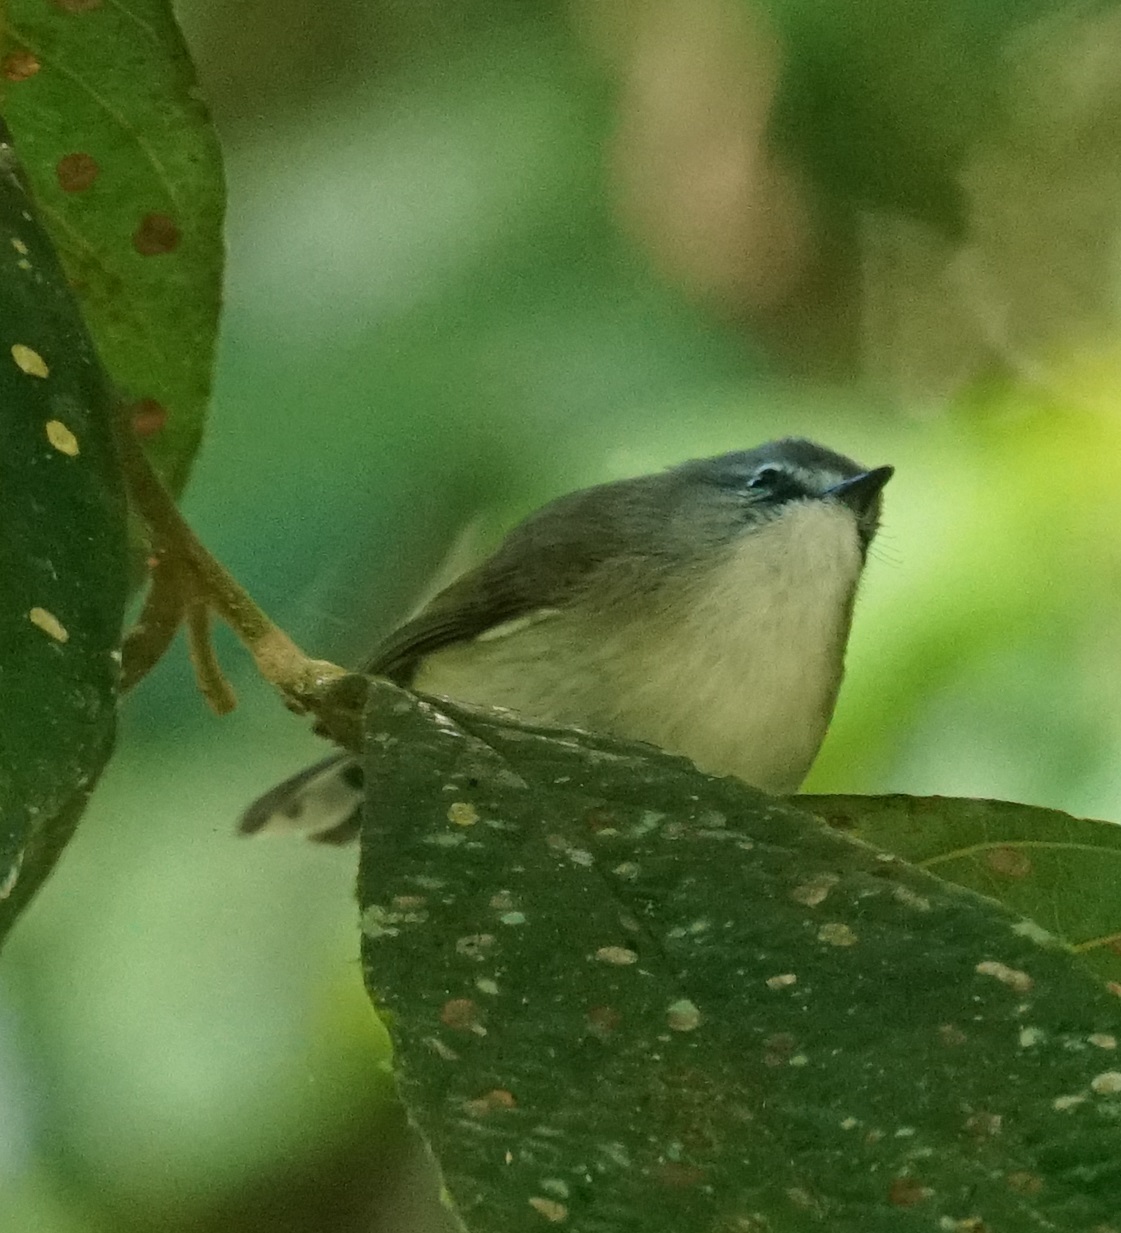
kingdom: Animalia
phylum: Chordata
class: Aves
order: Passeriformes
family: Acanthizidae
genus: Gerygone
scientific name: Gerygone mouki
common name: Brown gerygone
